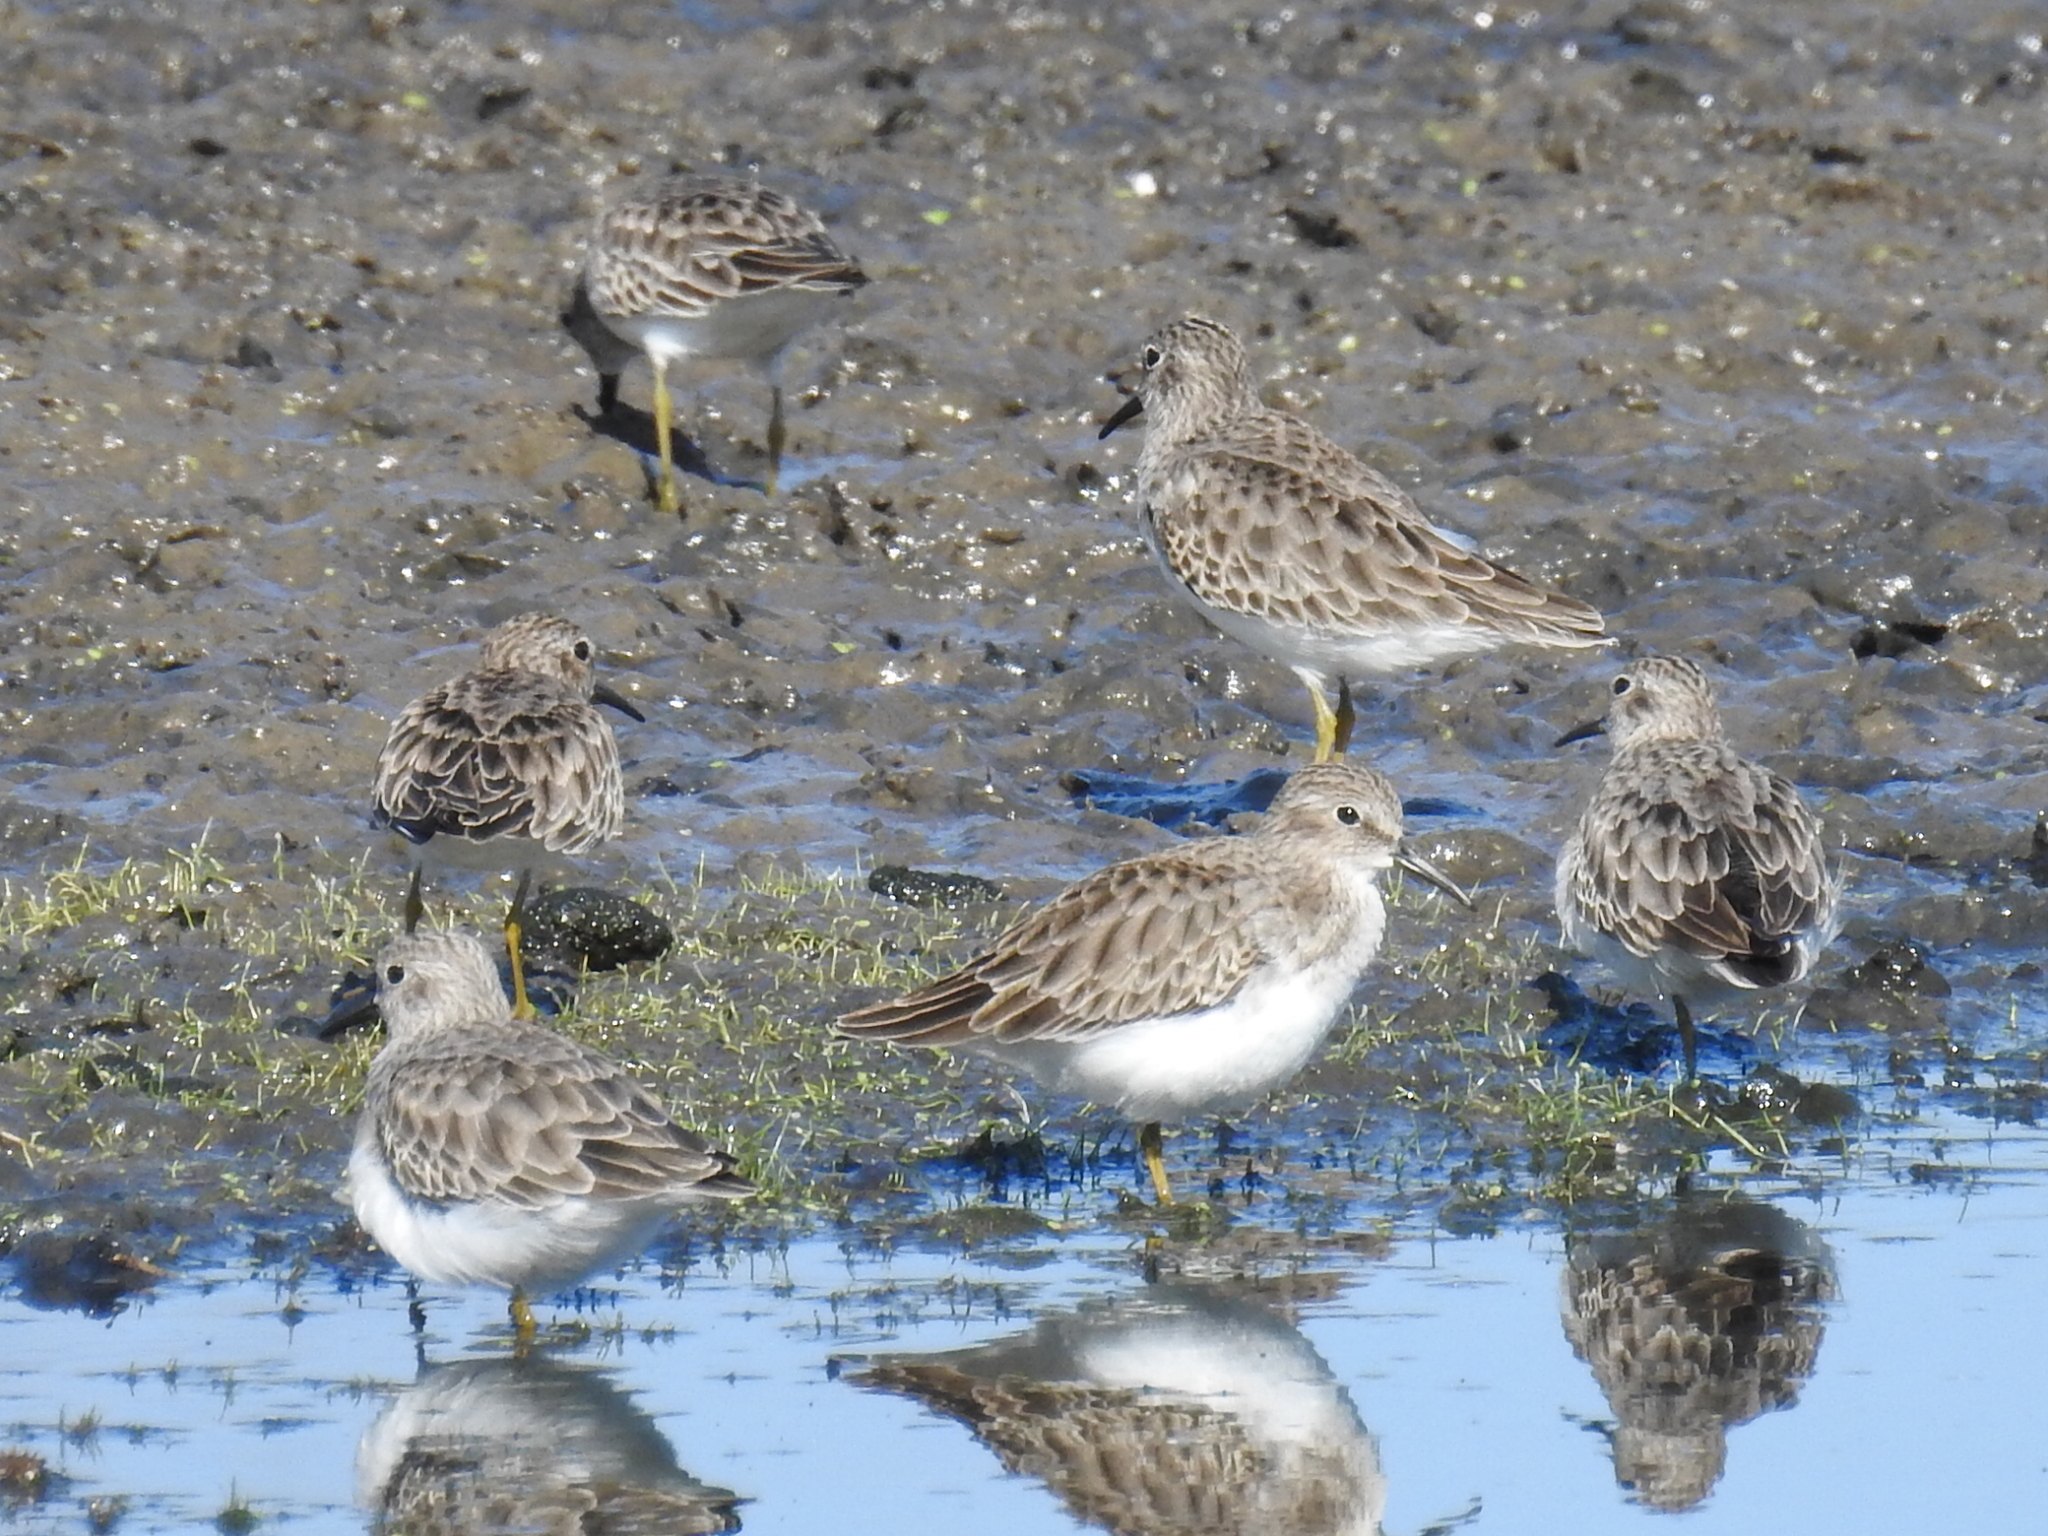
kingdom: Animalia
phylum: Chordata
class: Aves
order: Charadriiformes
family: Scolopacidae
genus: Calidris
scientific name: Calidris minutilla
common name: Least sandpiper
